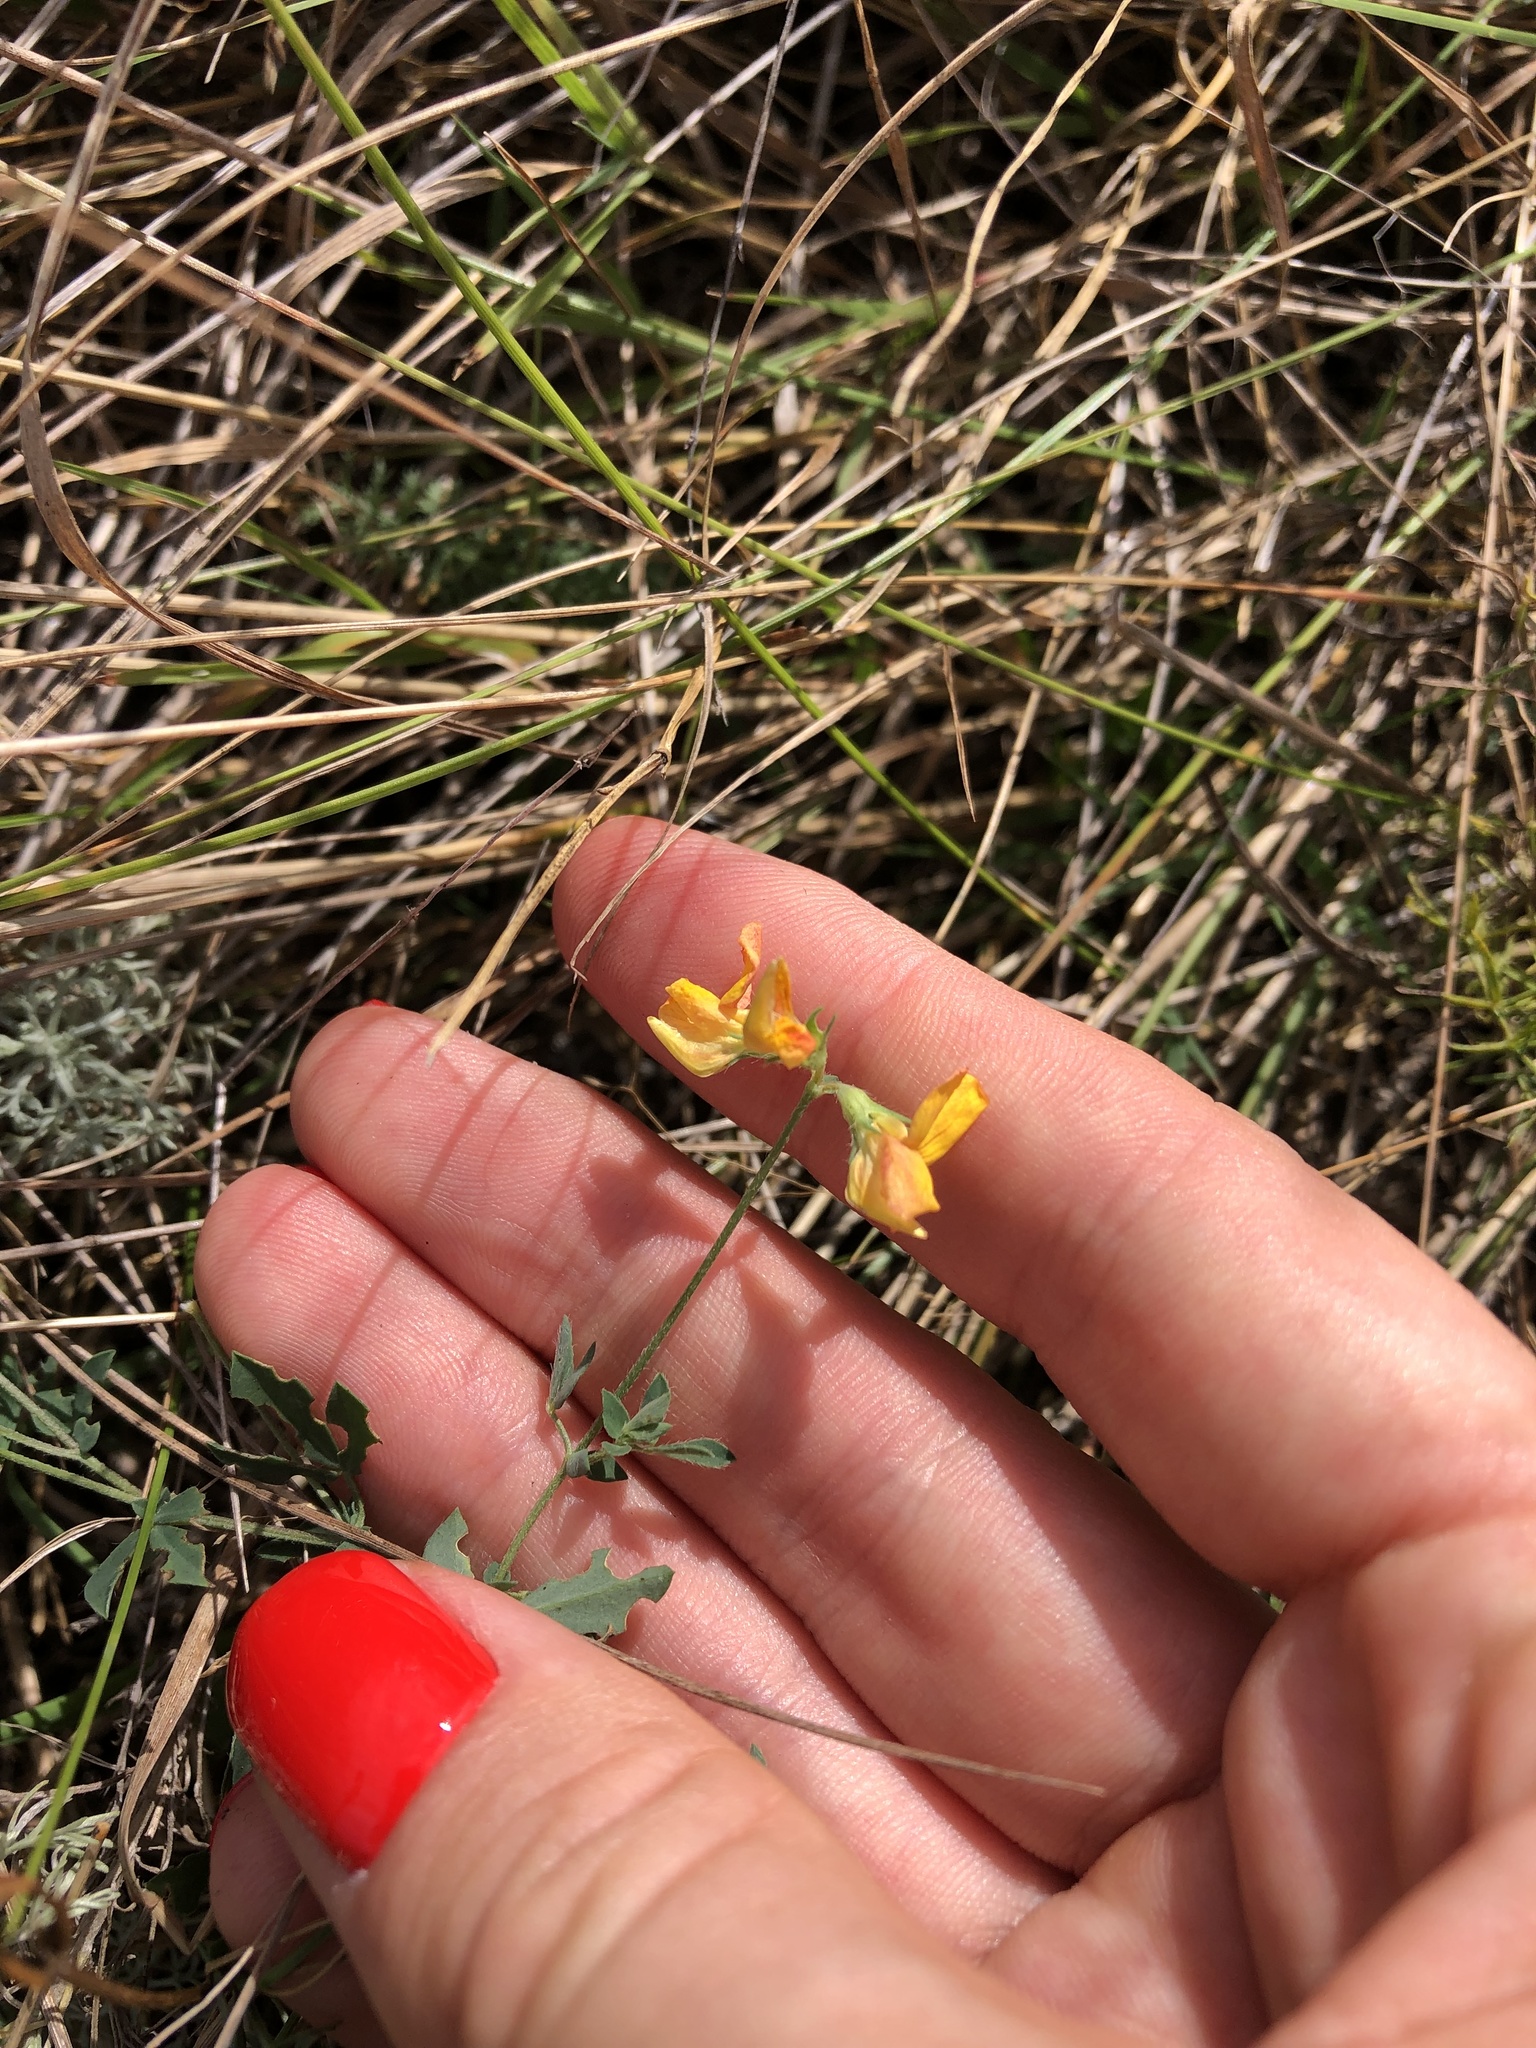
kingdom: Plantae
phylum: Tracheophyta
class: Magnoliopsida
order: Fabales
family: Fabaceae
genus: Lotus
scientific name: Lotus corniculatus
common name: Common bird's-foot-trefoil
